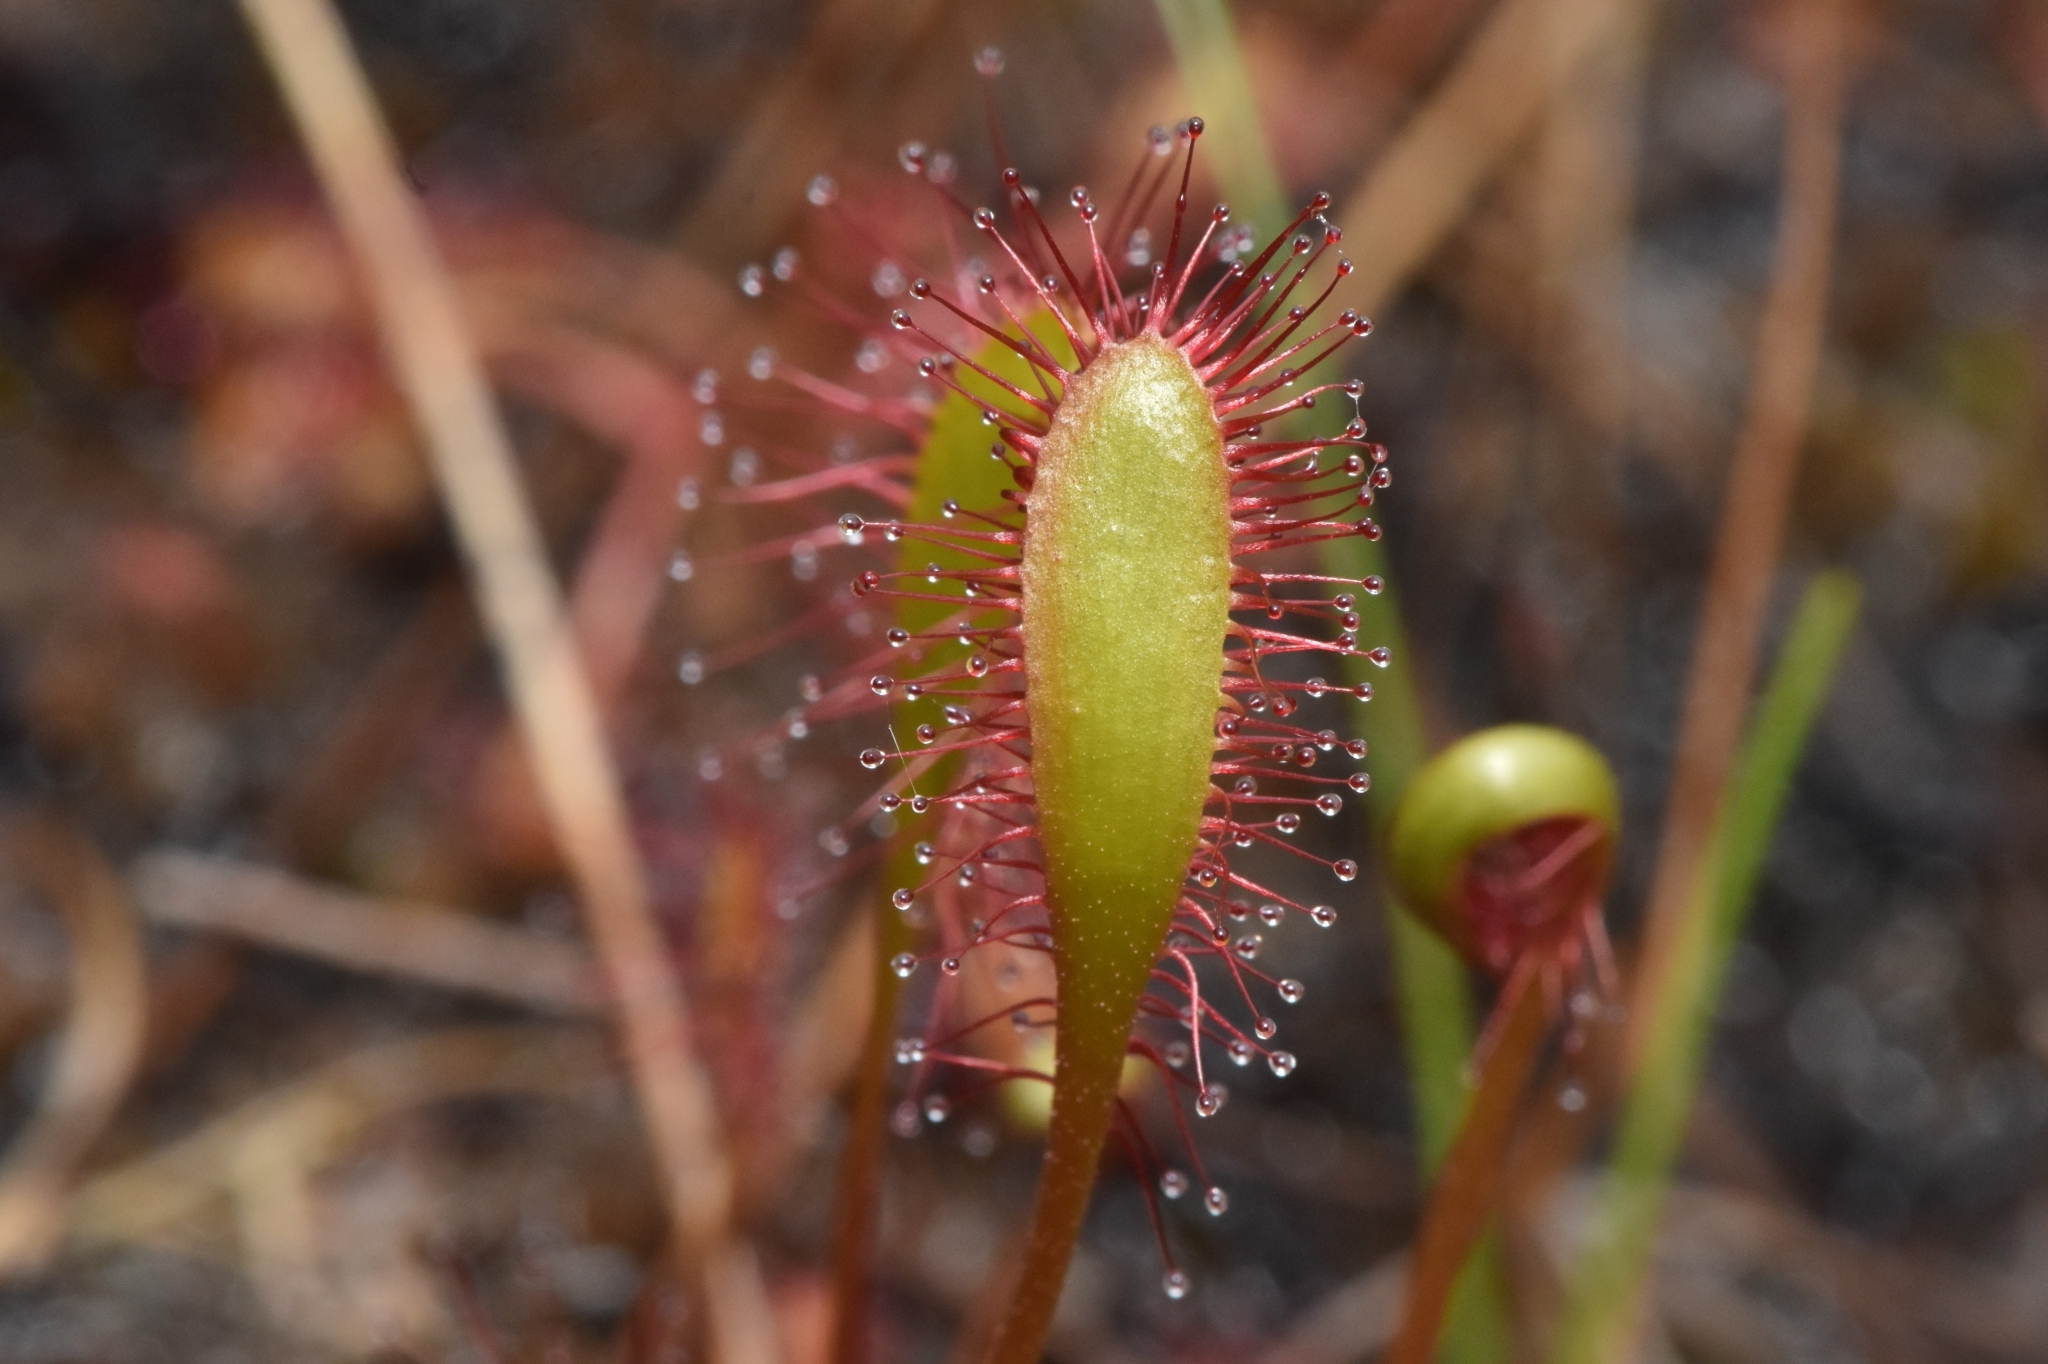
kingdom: Plantae
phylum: Tracheophyta
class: Magnoliopsida
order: Caryophyllales
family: Droseraceae
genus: Drosera
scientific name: Drosera anglica
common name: Great sundew
